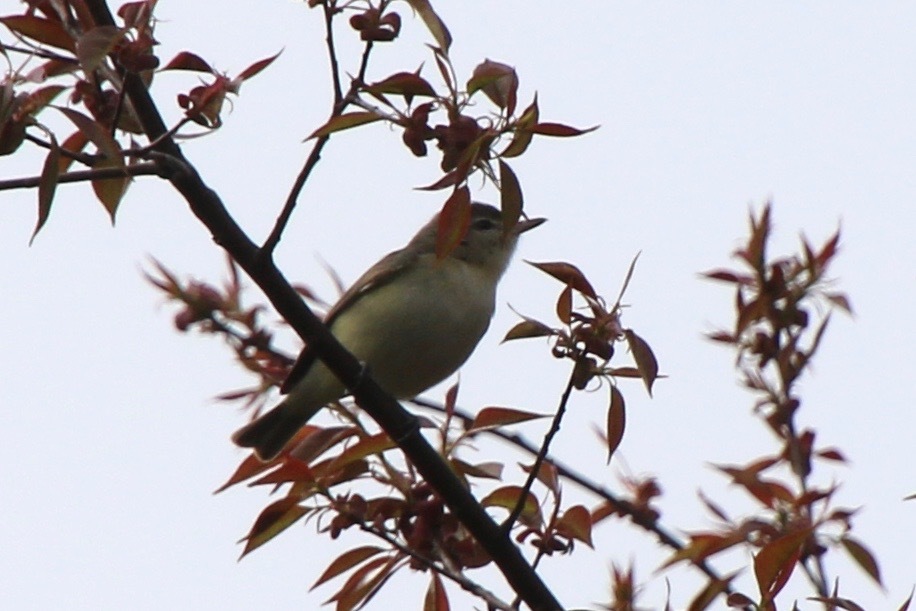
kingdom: Animalia
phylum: Chordata
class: Aves
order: Passeriformes
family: Vireonidae
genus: Vireo
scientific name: Vireo gilvus
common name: Warbling vireo
